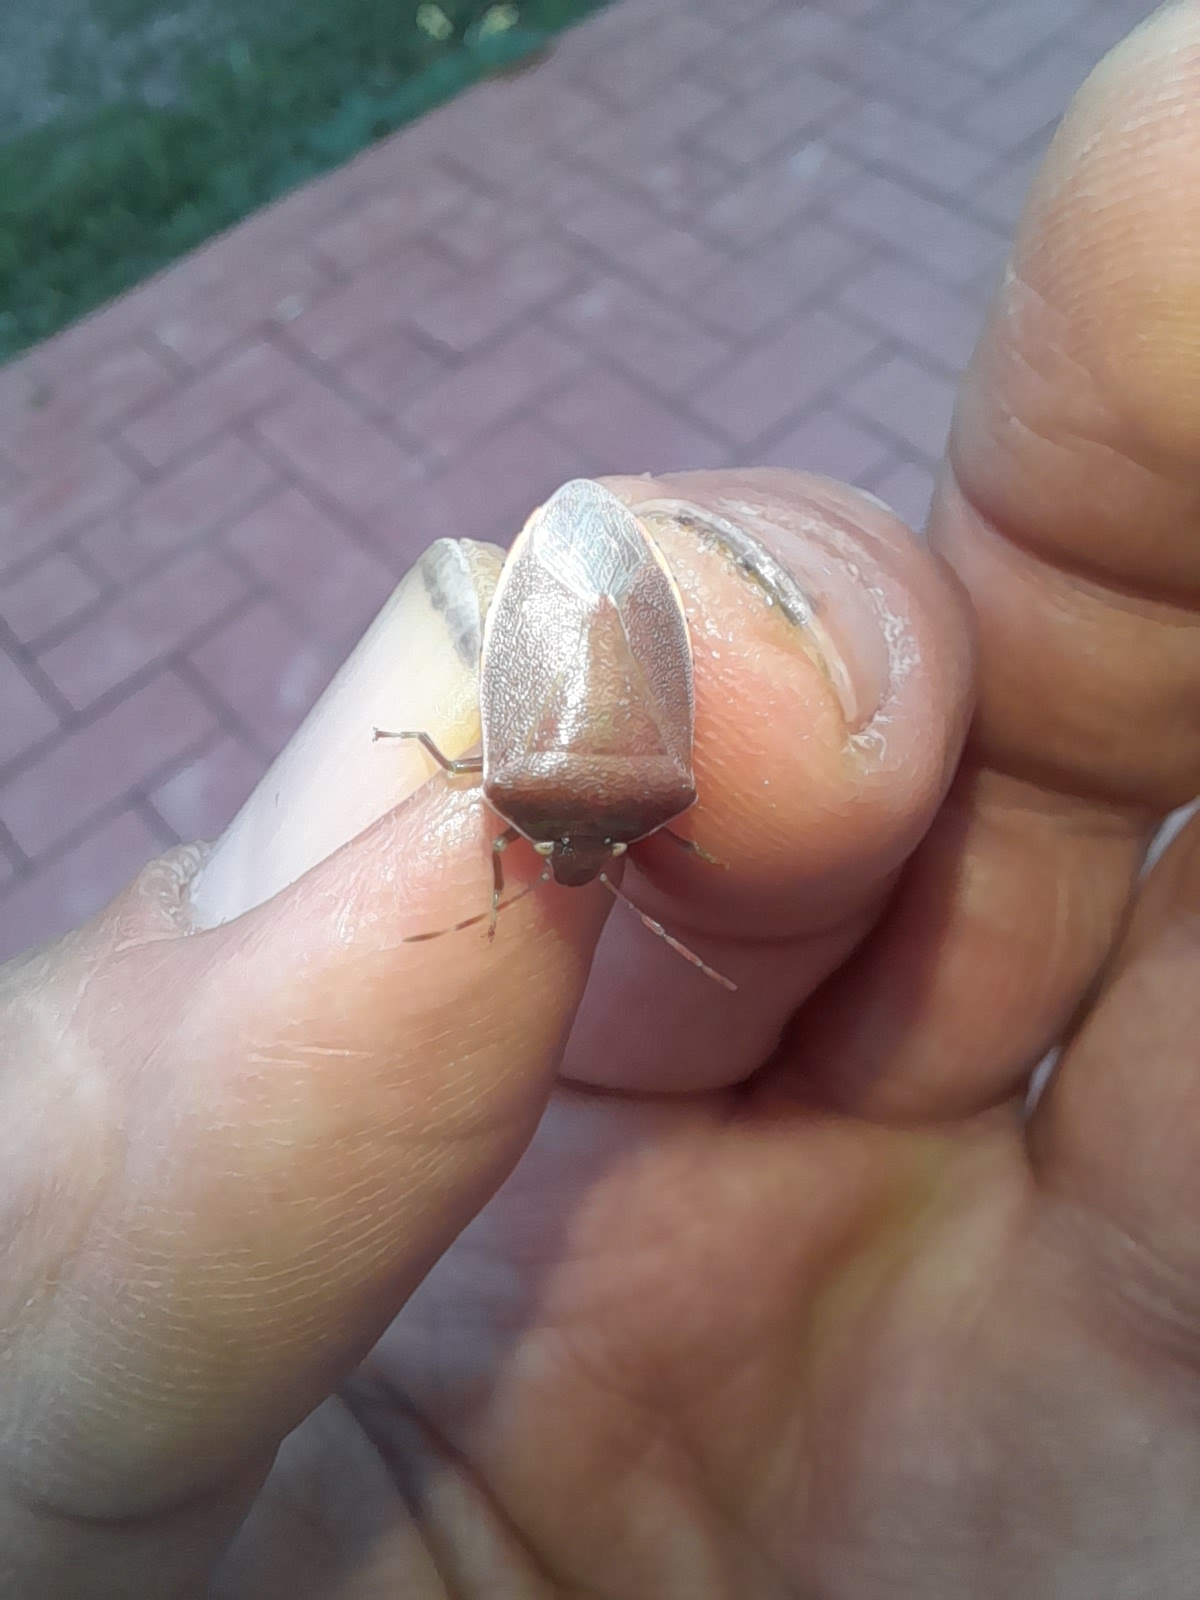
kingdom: Animalia
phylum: Arthropoda
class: Insecta
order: Hemiptera
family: Pentatomidae
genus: Acrosternum
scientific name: Acrosternum heegeri
